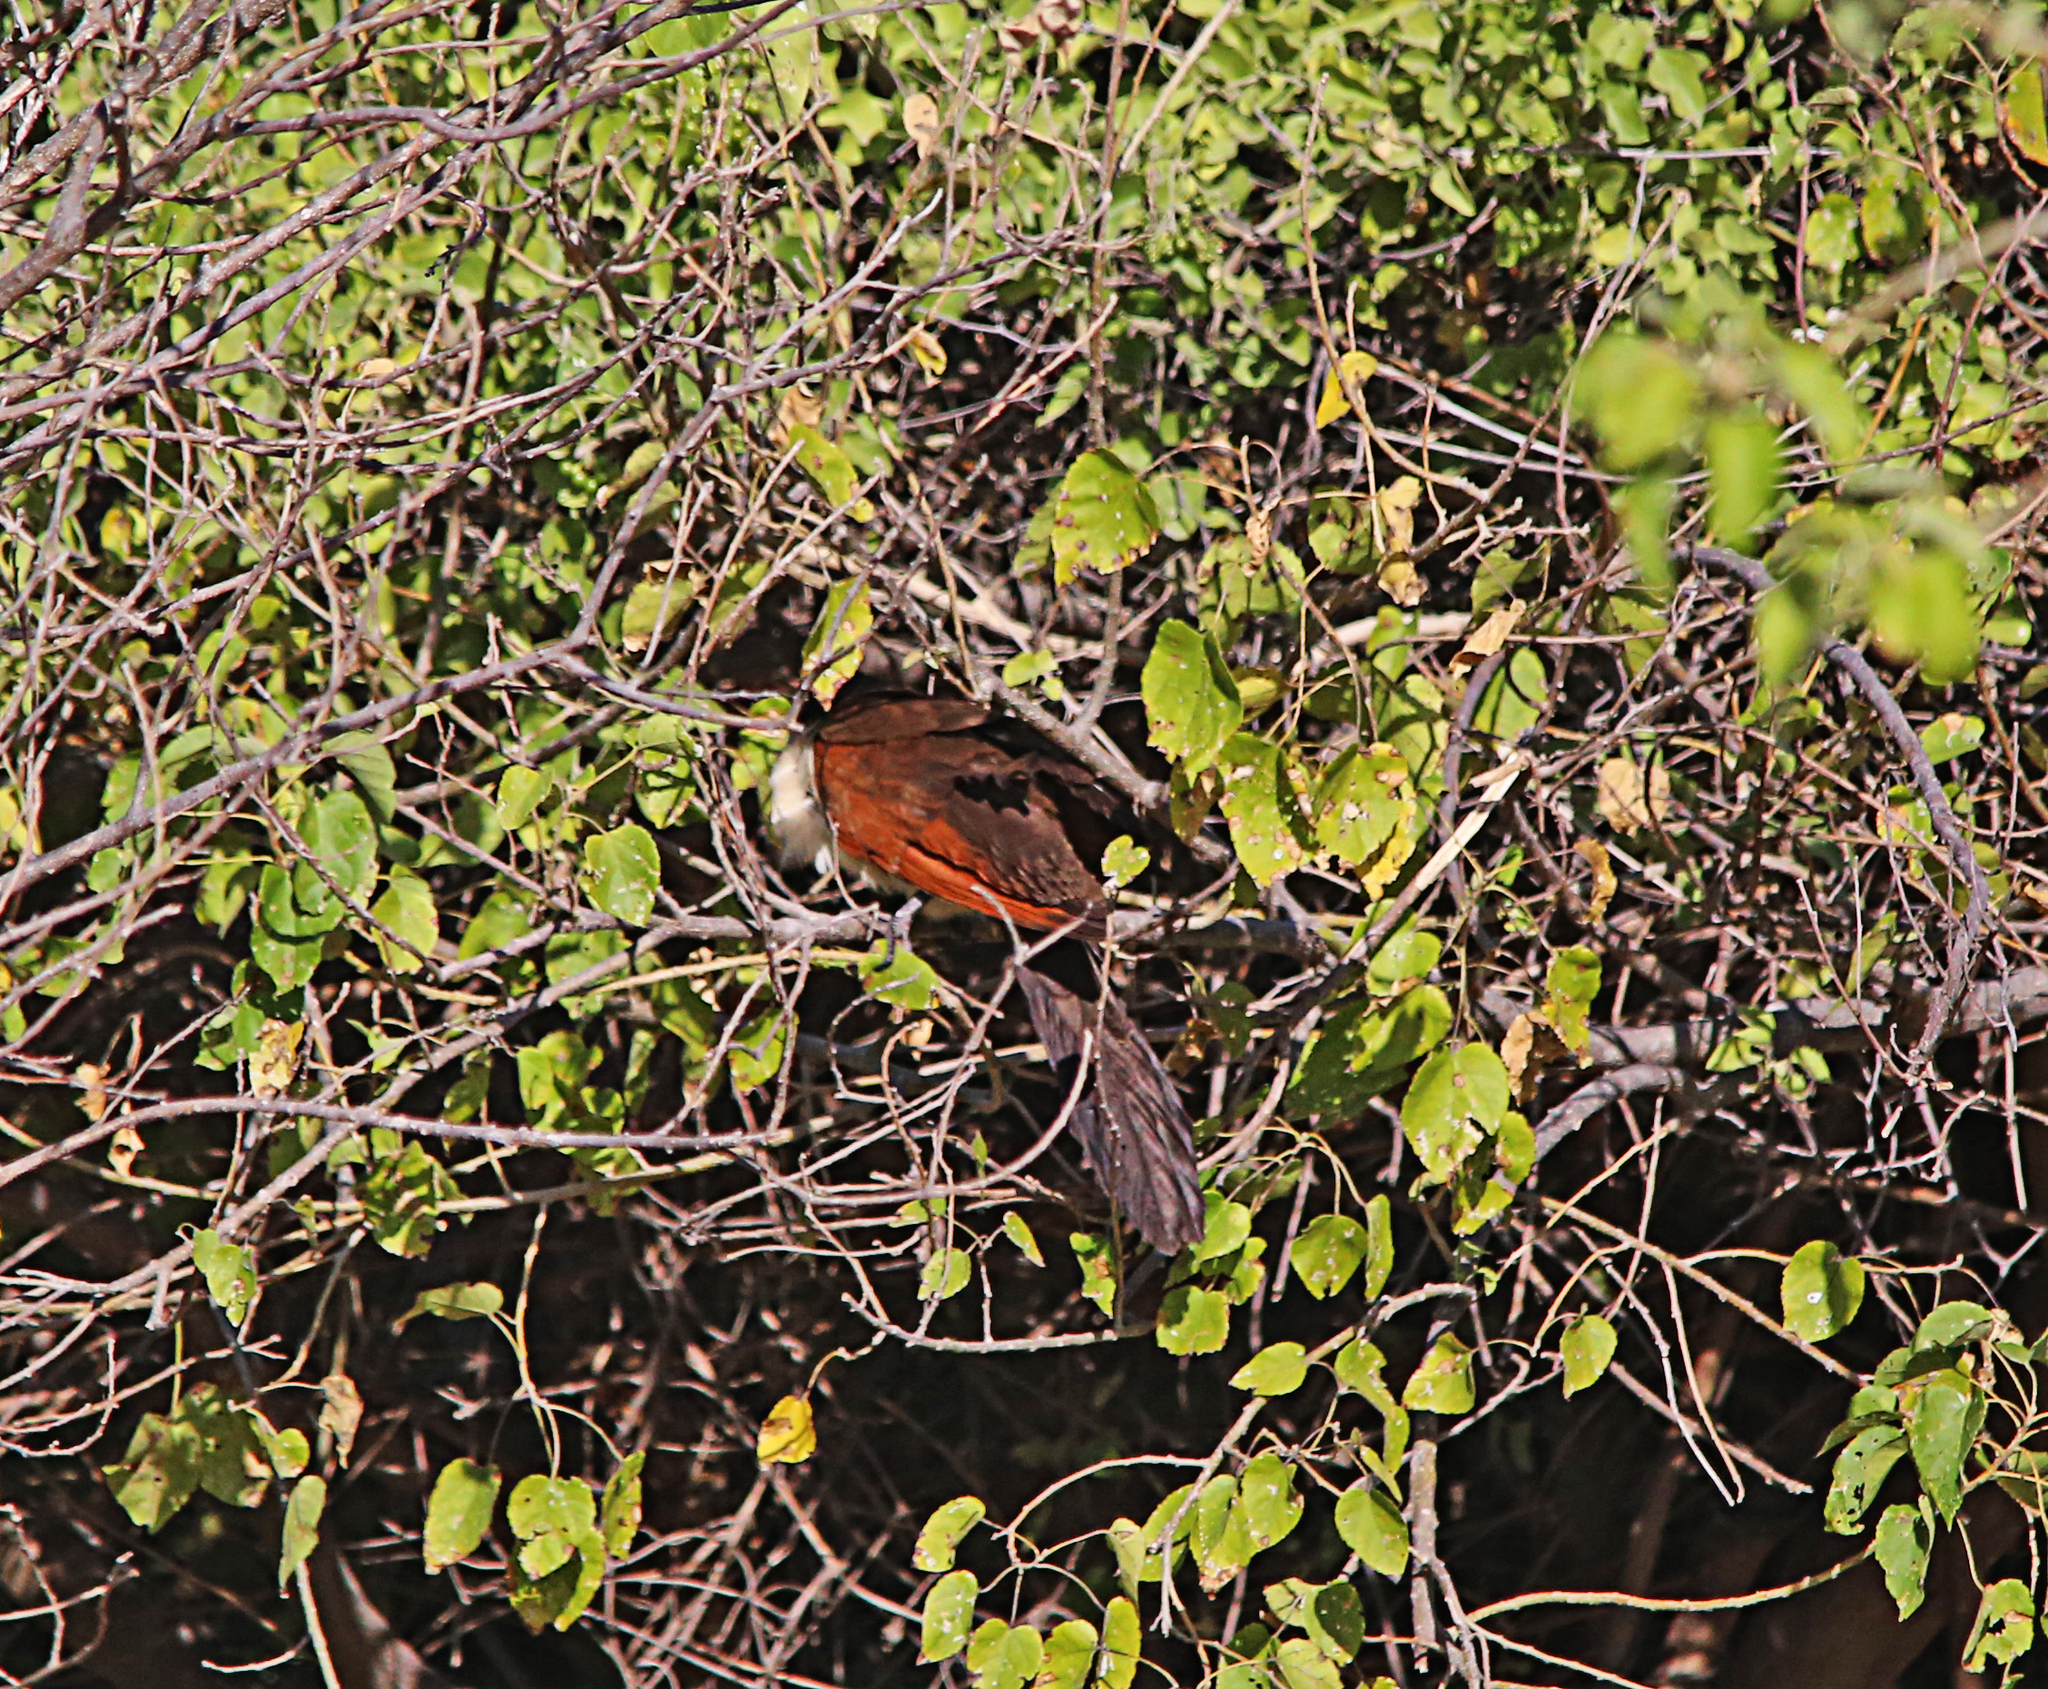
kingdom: Animalia
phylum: Chordata
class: Aves
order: Cuculiformes
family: Cuculidae
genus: Centropus
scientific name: Centropus senegalensis
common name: Senegal coucal
